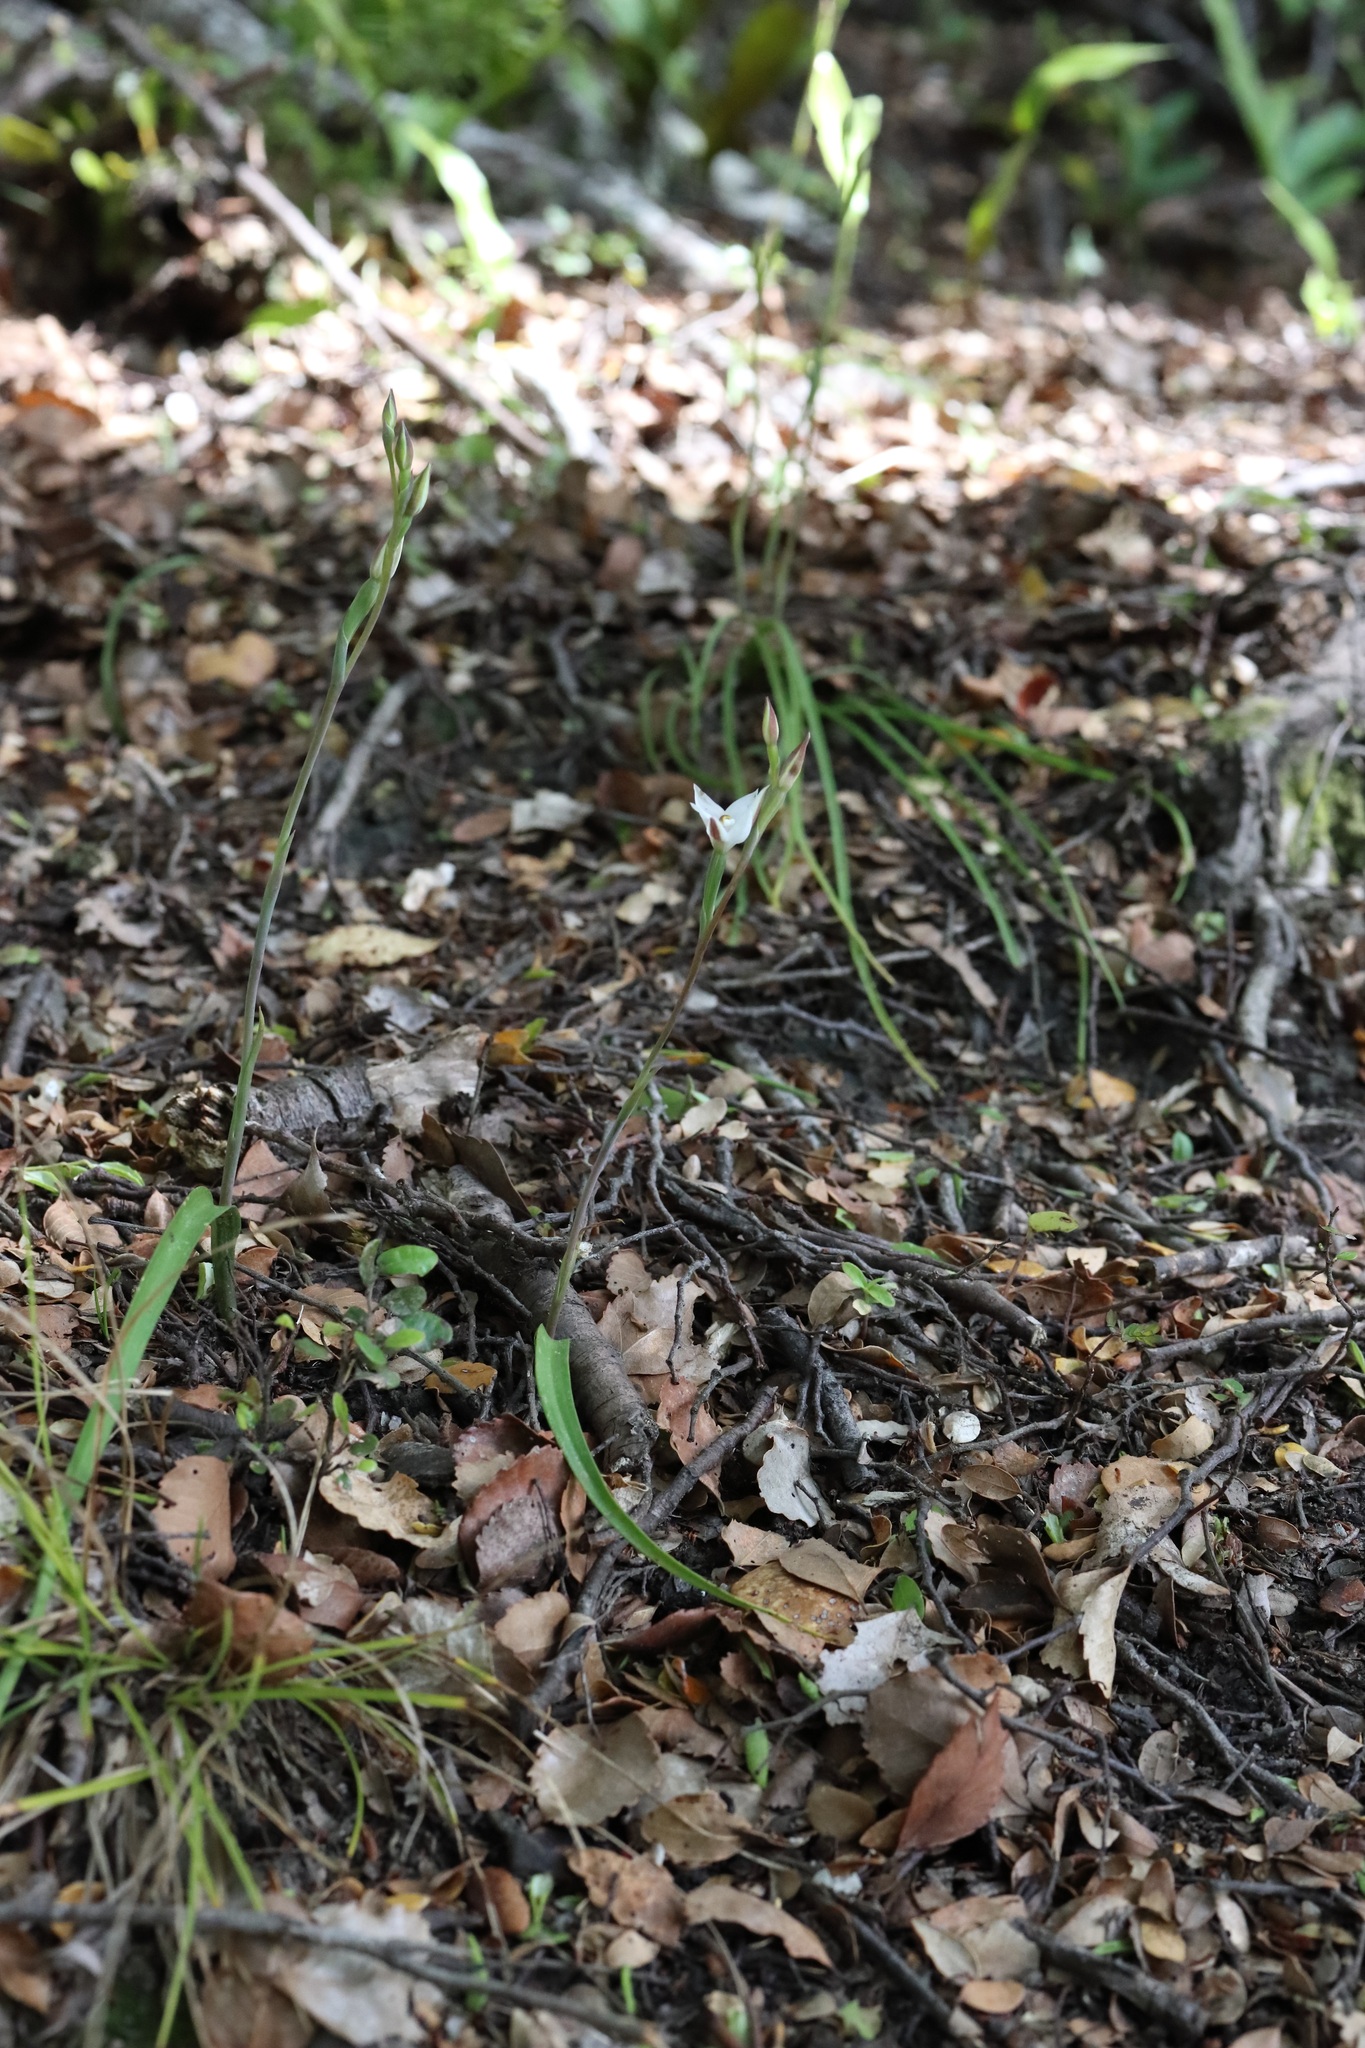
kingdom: Plantae
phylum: Tracheophyta
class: Liliopsida
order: Asparagales
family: Orchidaceae
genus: Thelymitra
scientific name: Thelymitra longifolia
